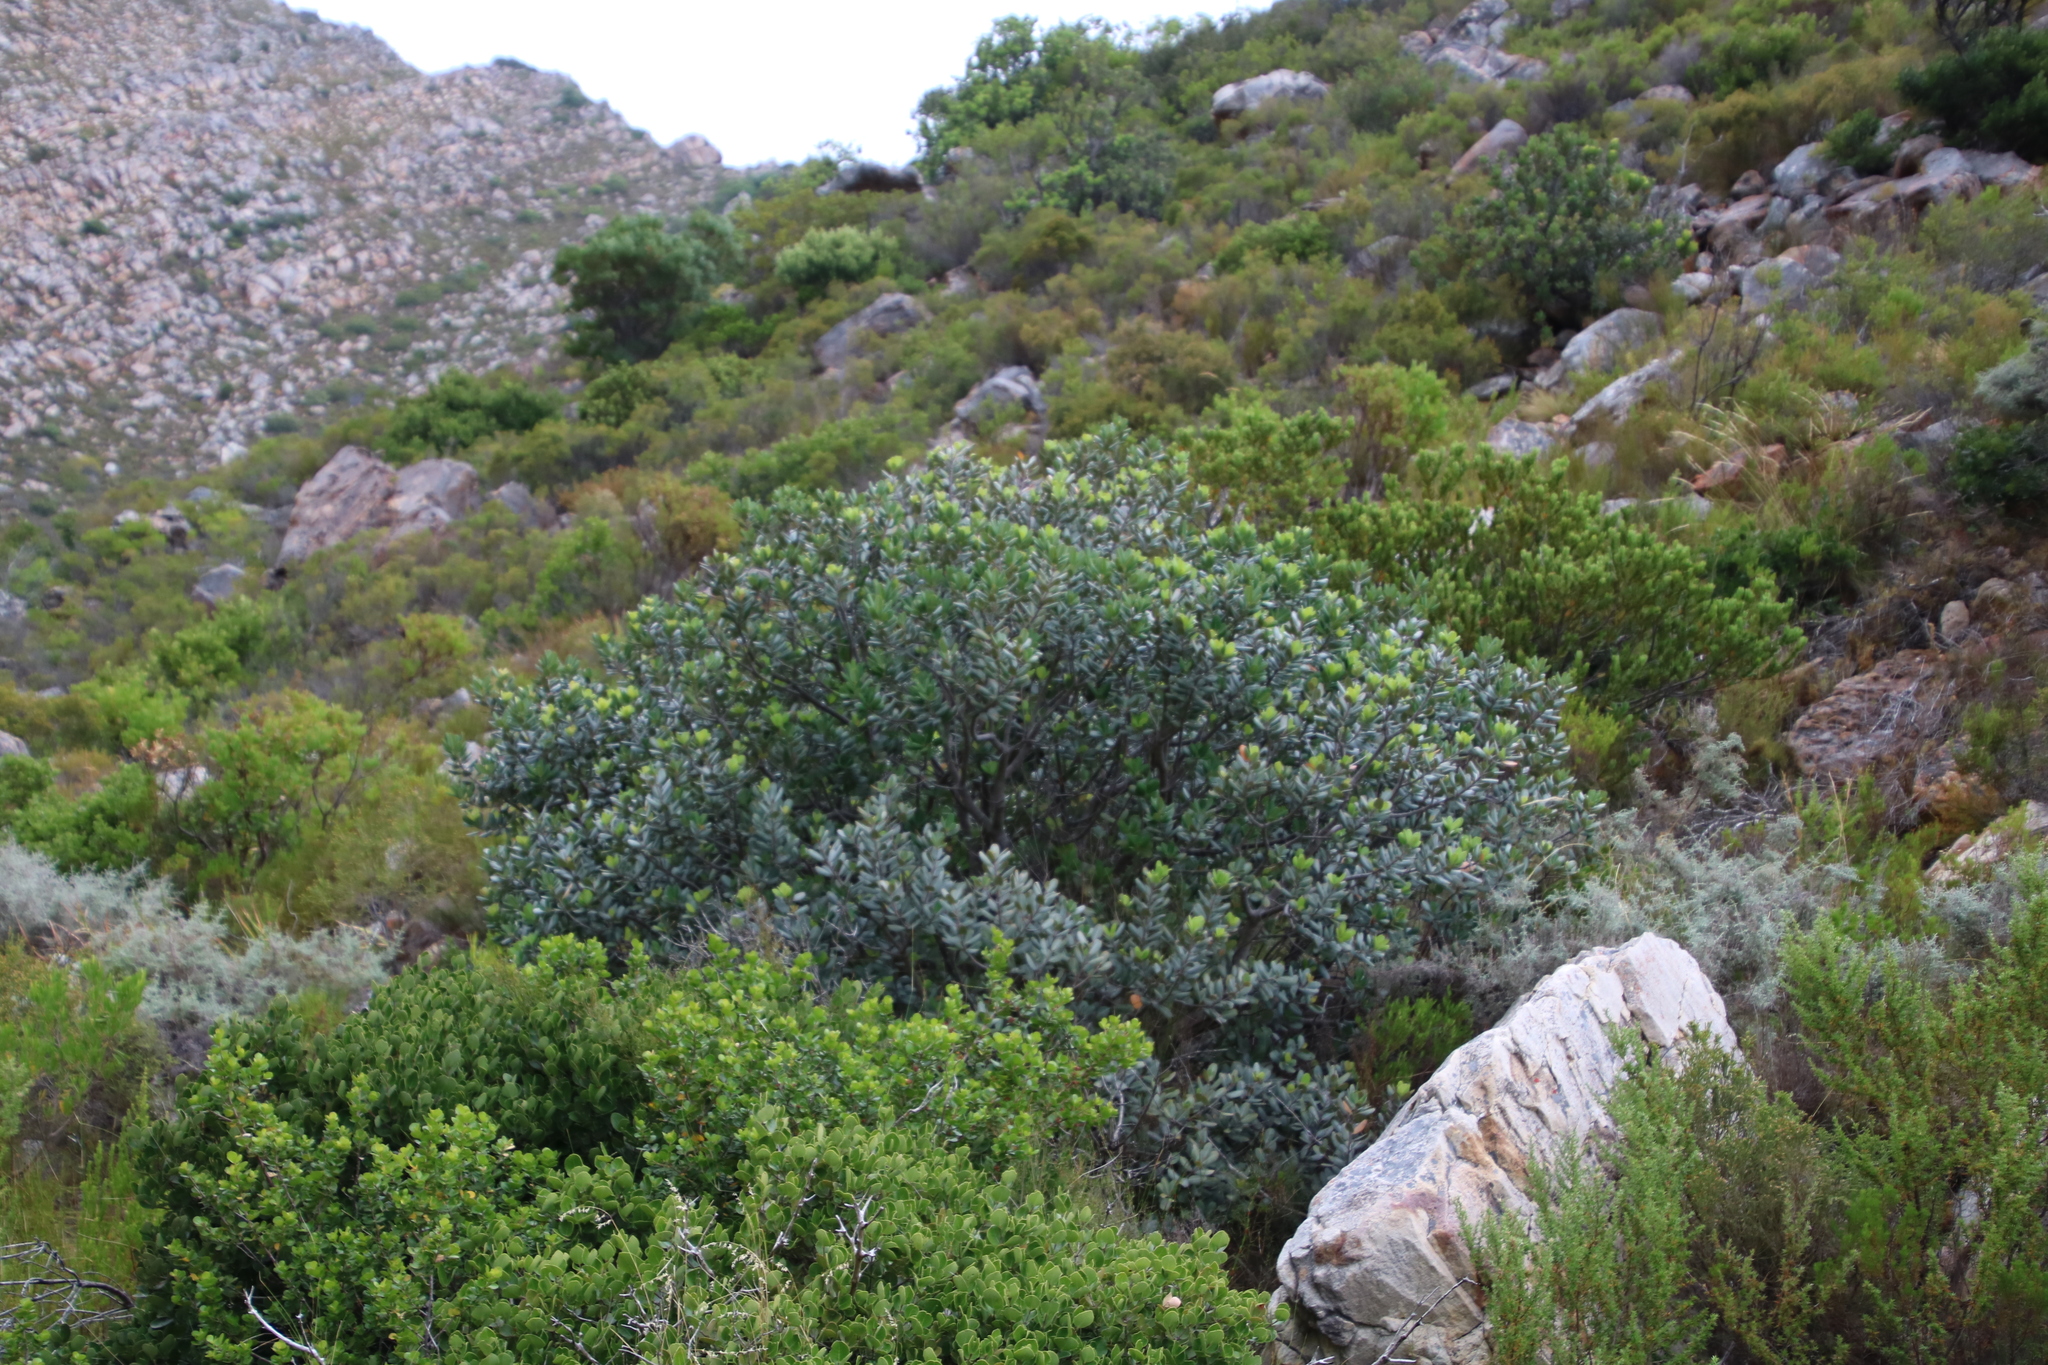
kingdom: Plantae
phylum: Tracheophyta
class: Magnoliopsida
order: Sapindales
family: Anacardiaceae
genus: Heeria
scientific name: Heeria argentea
